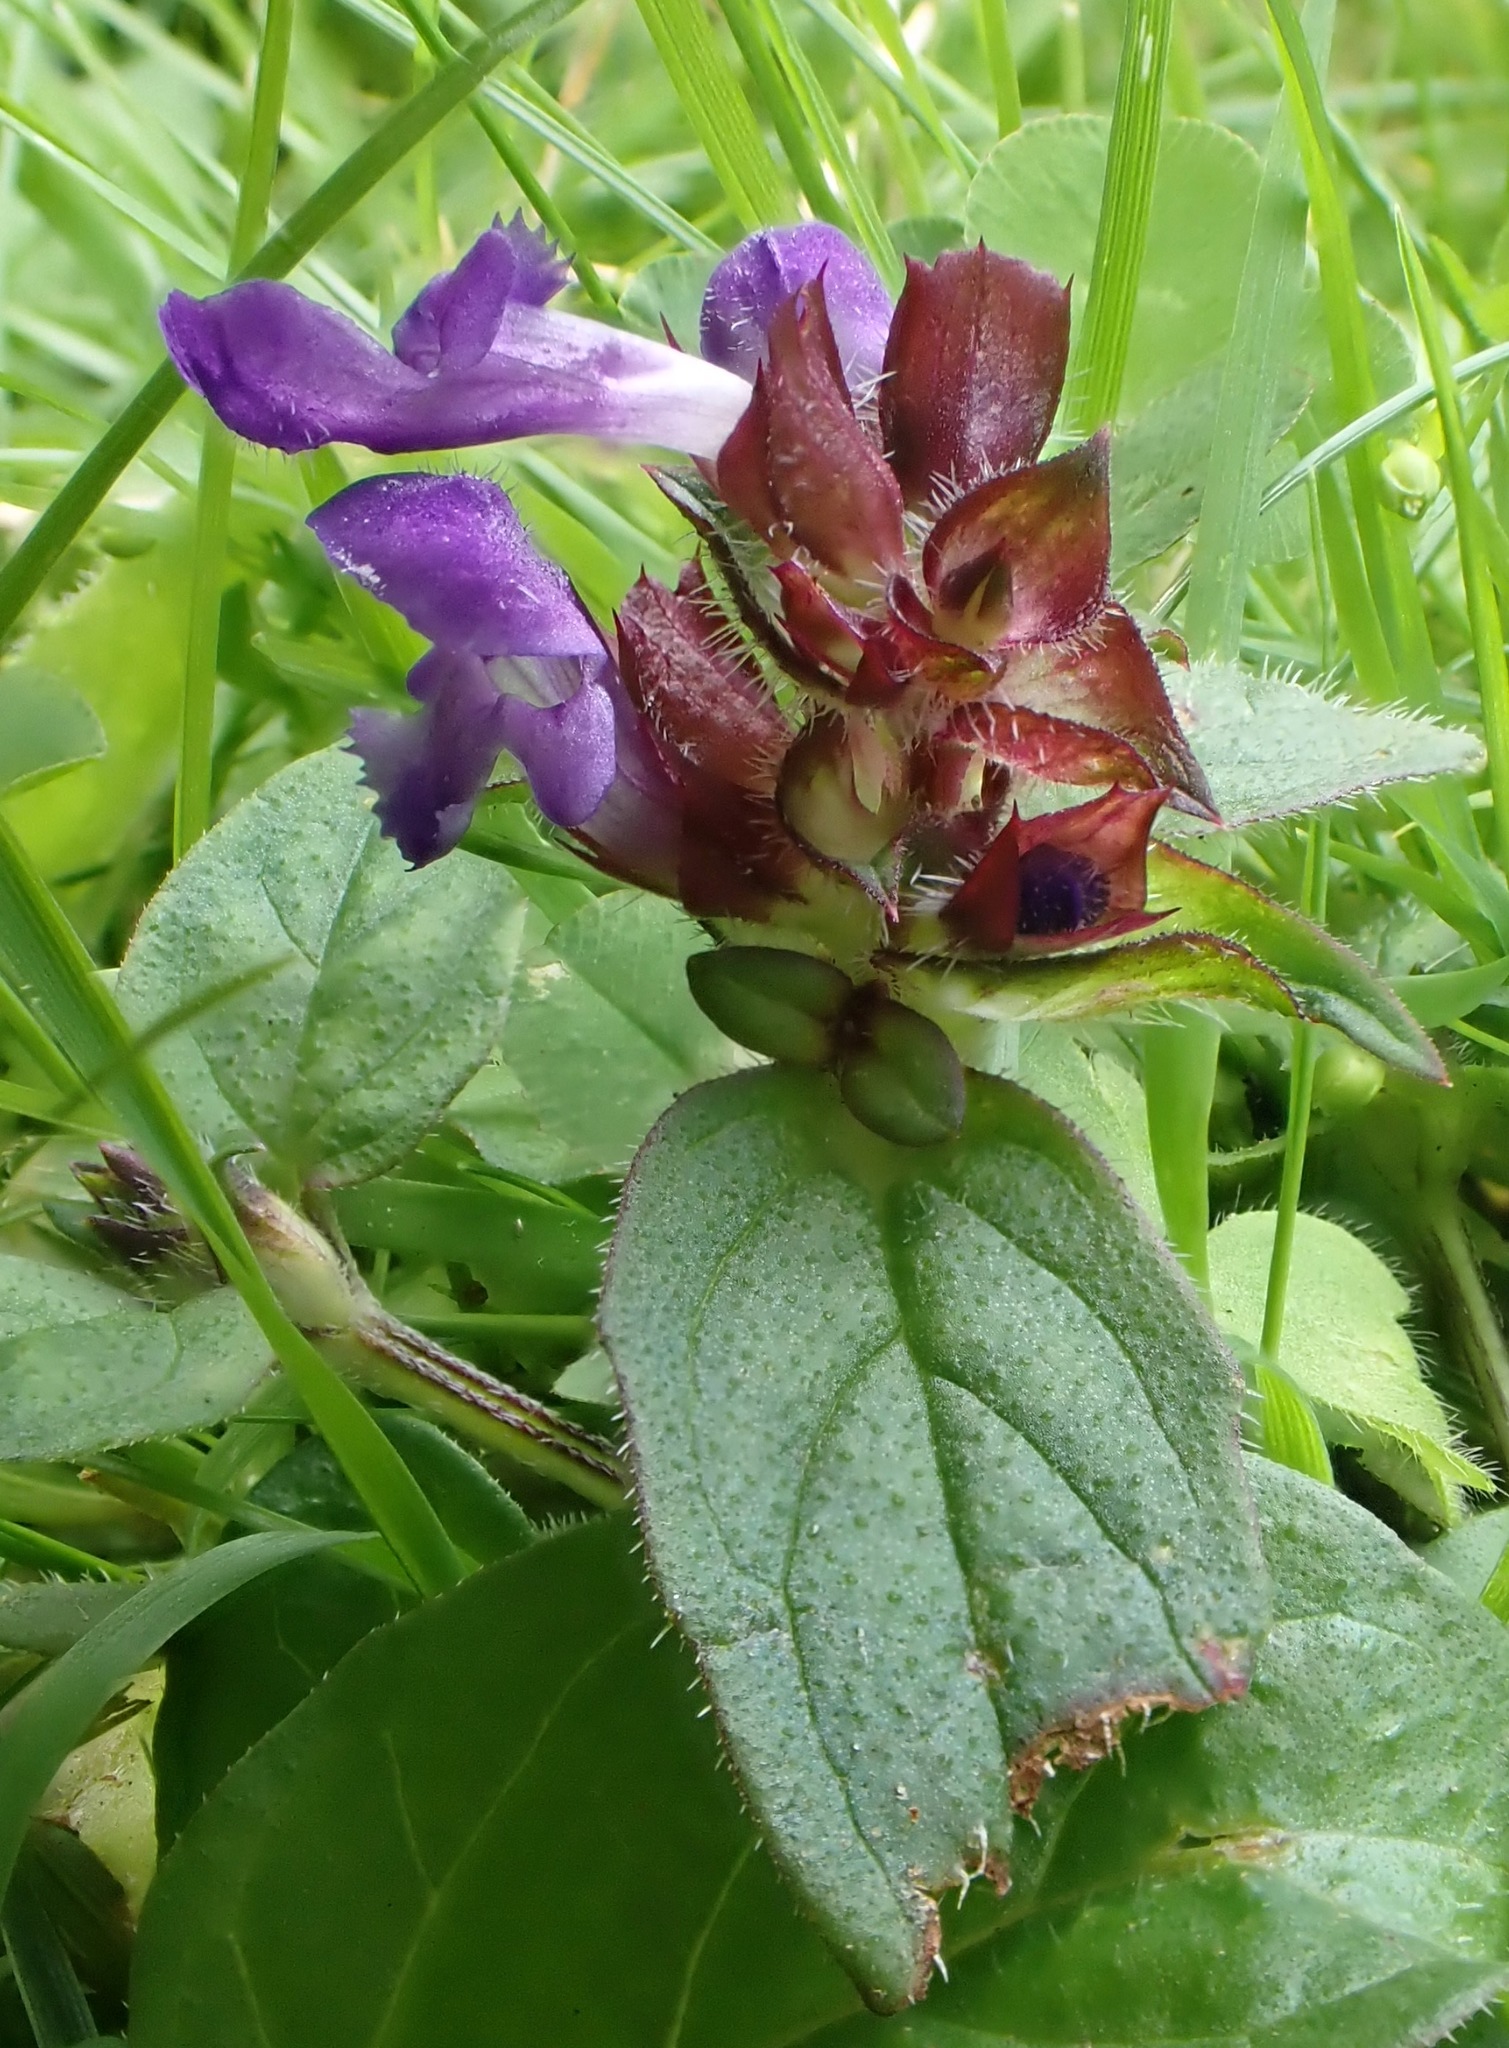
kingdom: Plantae
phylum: Tracheophyta
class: Magnoliopsida
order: Lamiales
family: Lamiaceae
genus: Prunella
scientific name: Prunella vulgaris
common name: Heal-all
